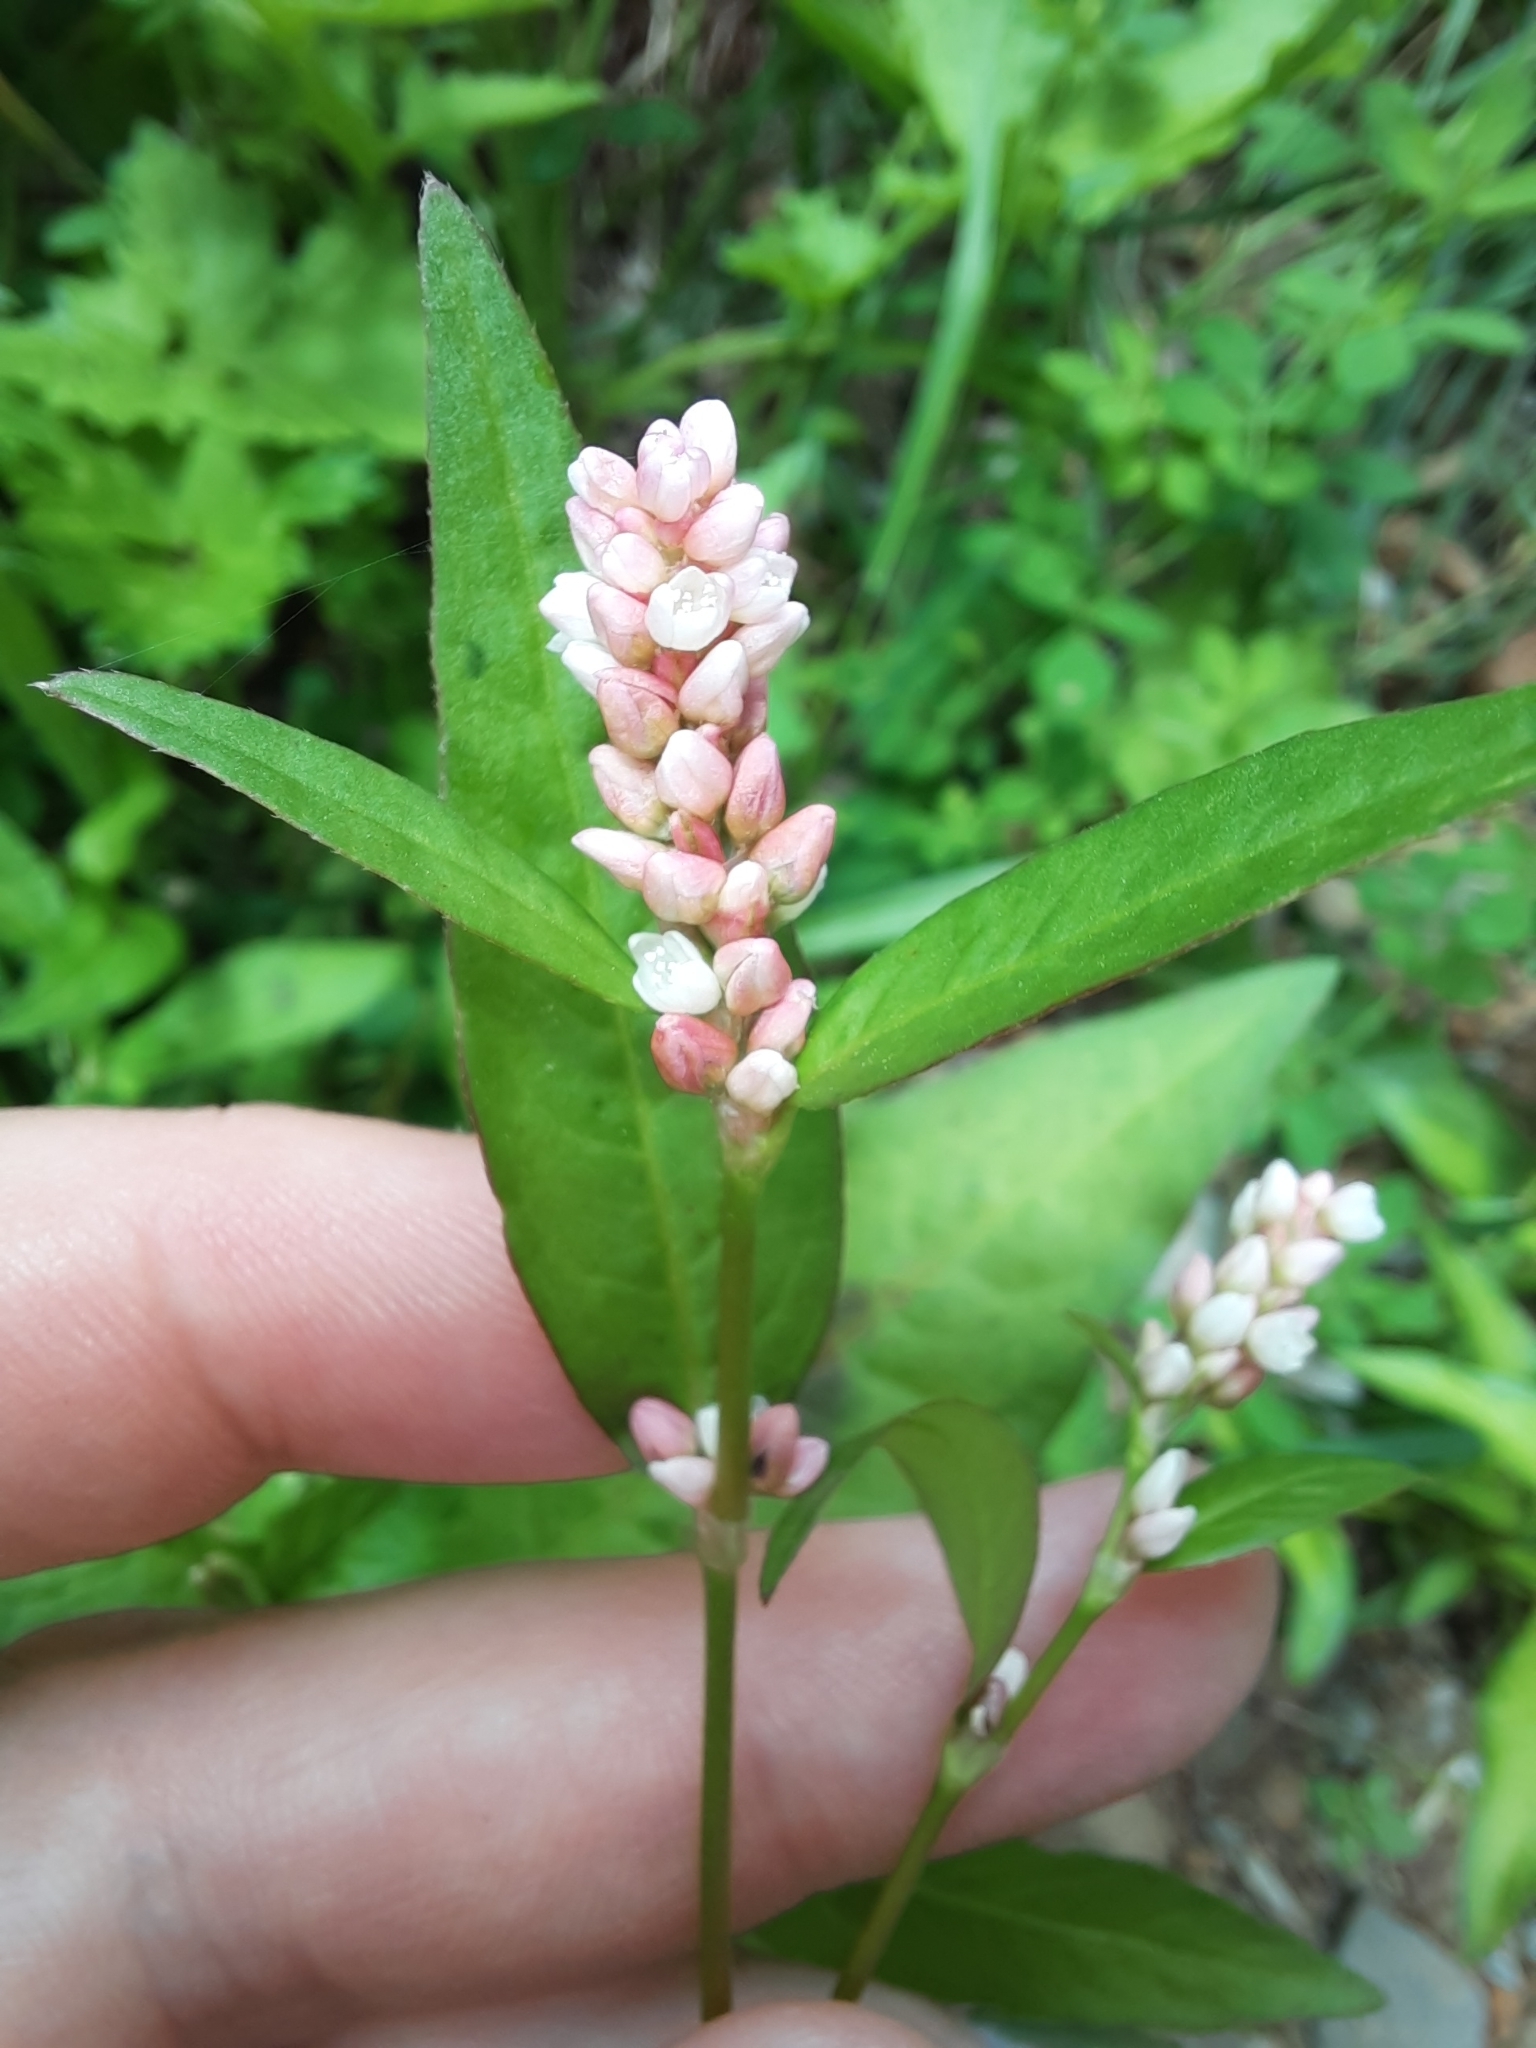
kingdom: Plantae
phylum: Tracheophyta
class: Magnoliopsida
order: Caryophyllales
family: Polygonaceae
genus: Persicaria
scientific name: Persicaria maculosa
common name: Redshank
